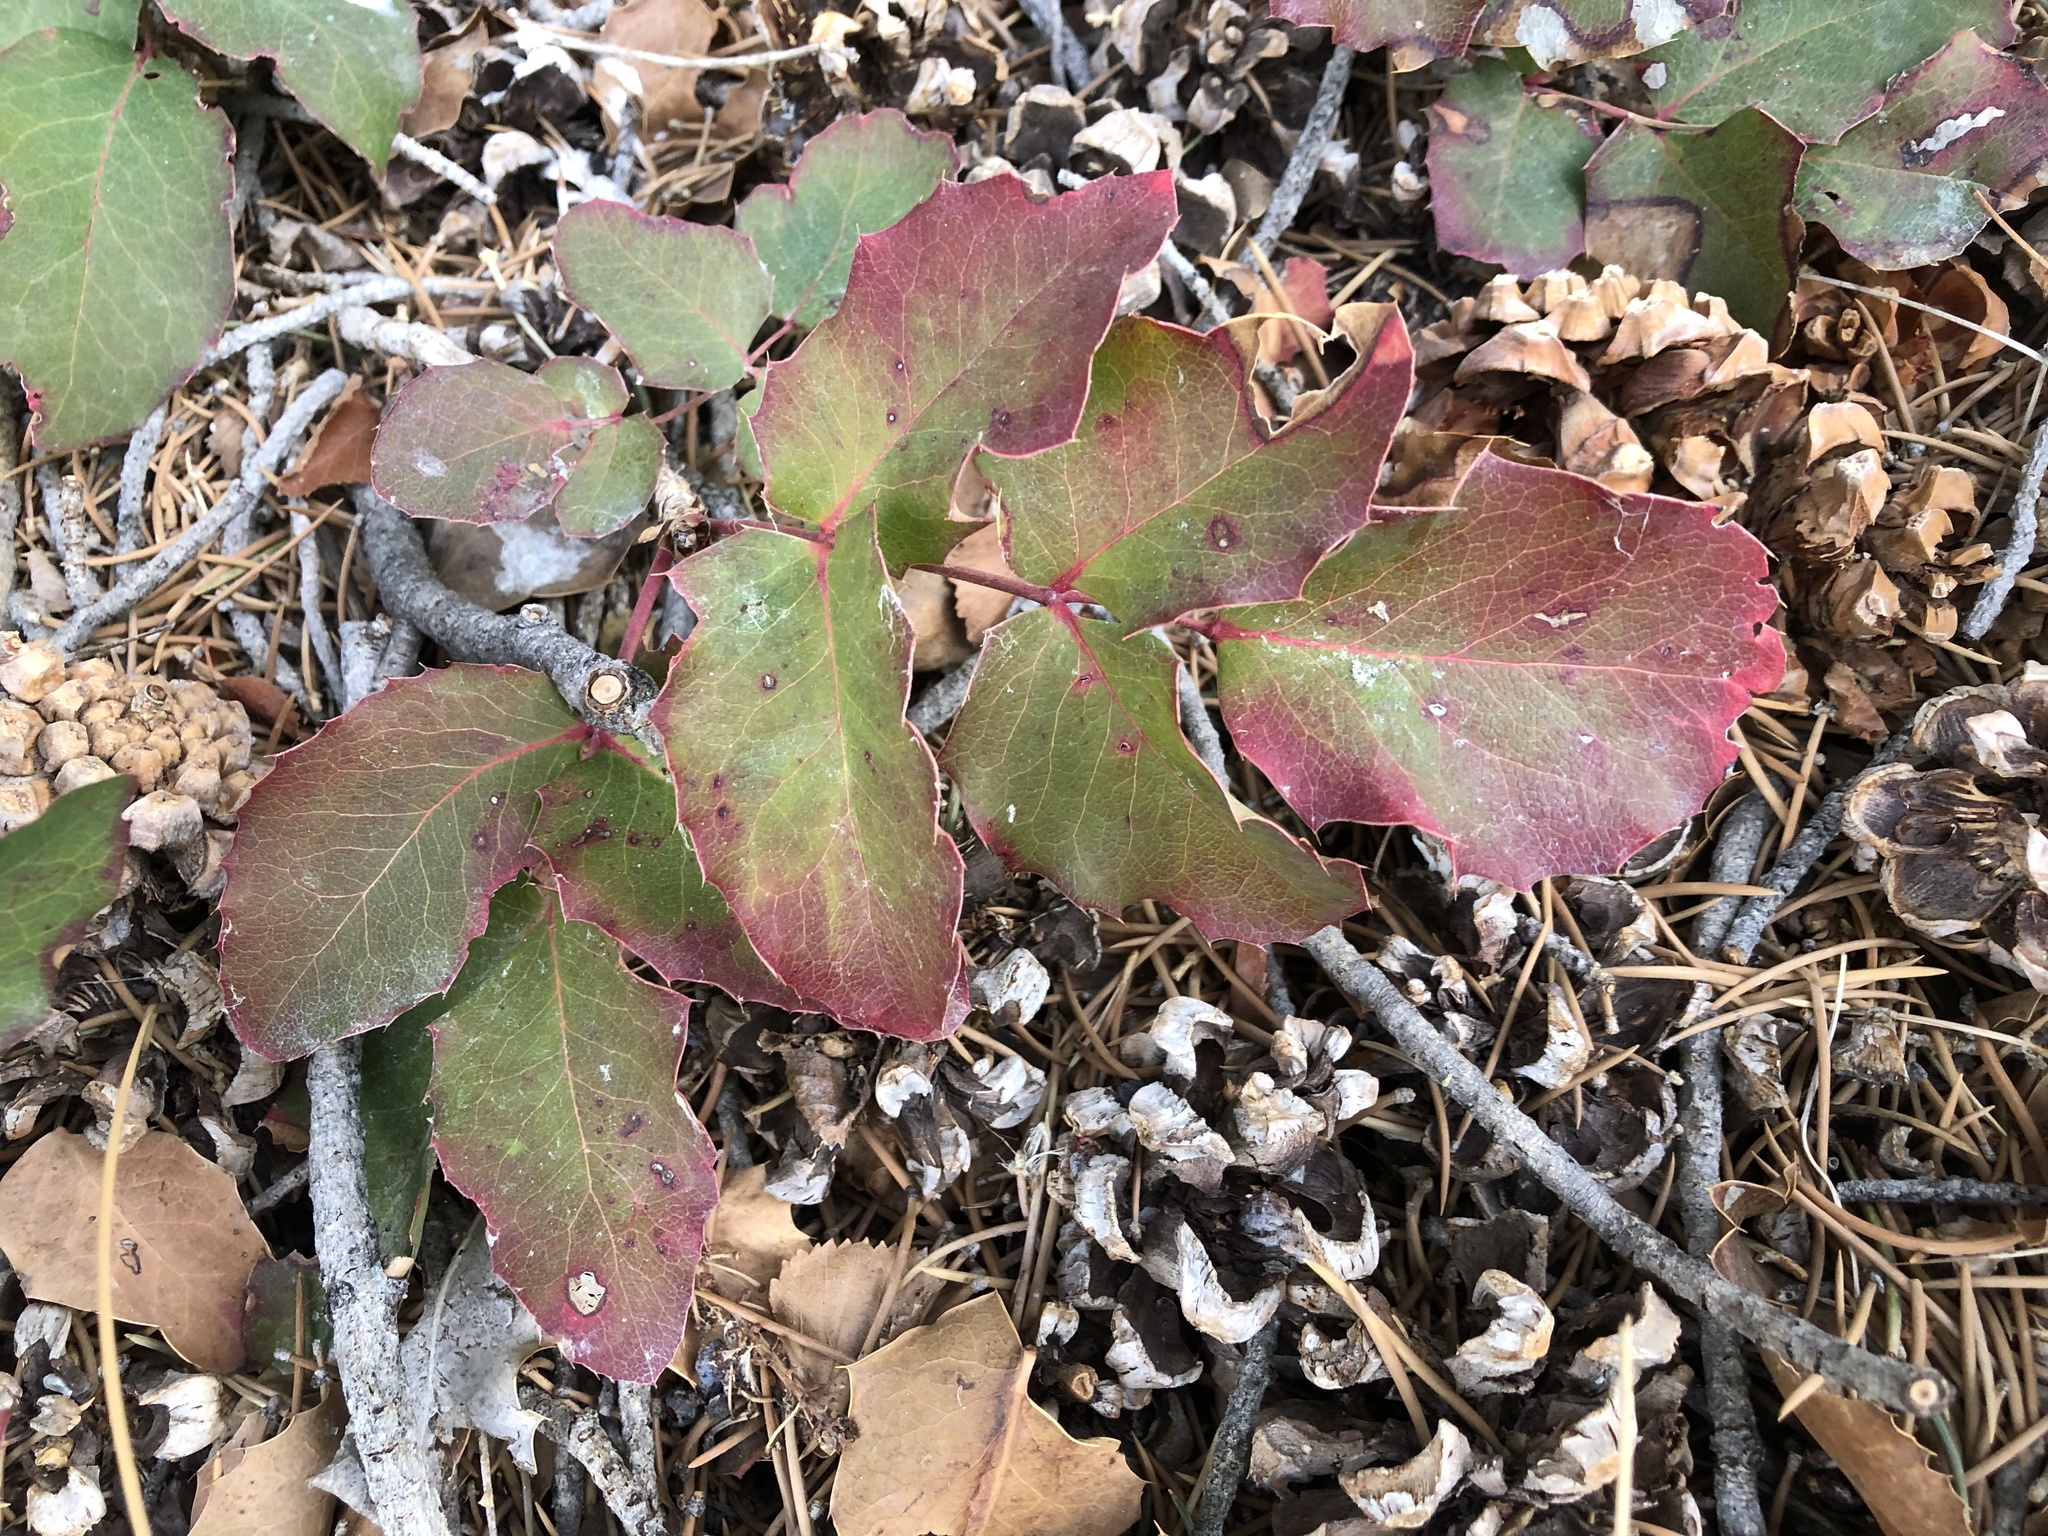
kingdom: Plantae
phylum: Tracheophyta
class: Magnoliopsida
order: Ranunculales
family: Berberidaceae
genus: Mahonia
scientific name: Mahonia repens
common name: Creeping oregon-grape
